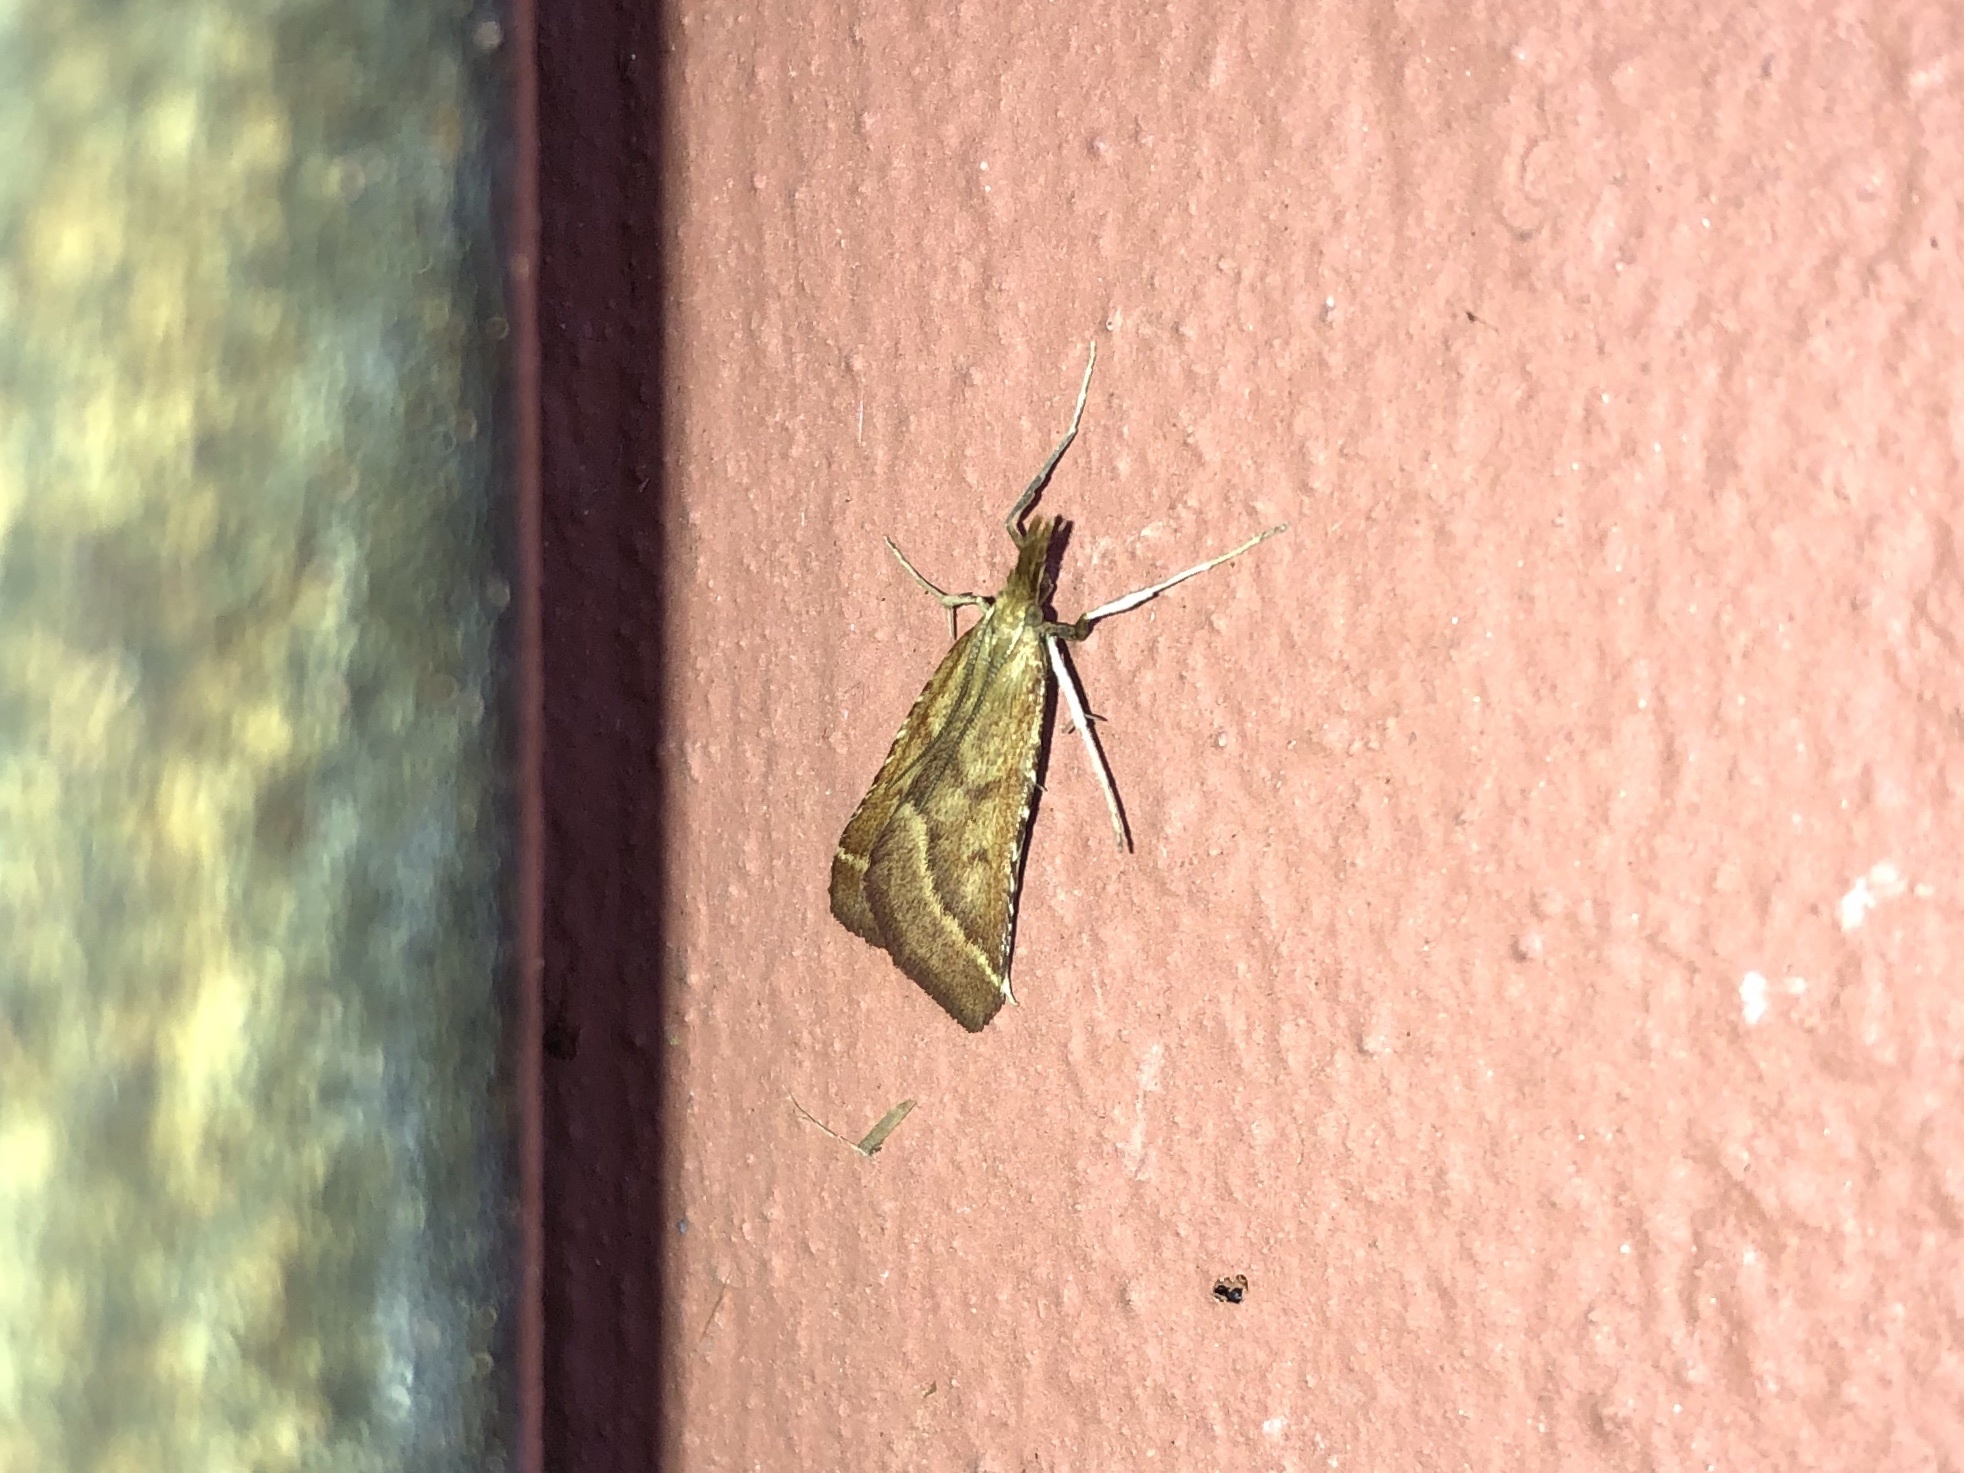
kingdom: Animalia
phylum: Arthropoda
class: Insecta
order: Lepidoptera
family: Pyralidae
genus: Synaphe
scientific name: Synaphe punctalis
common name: Long-legged tabby
